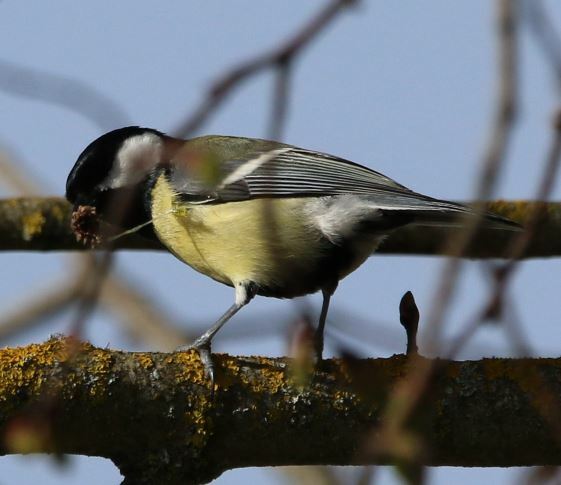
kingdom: Animalia
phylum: Chordata
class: Aves
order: Passeriformes
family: Paridae
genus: Parus
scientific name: Parus major
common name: Great tit
